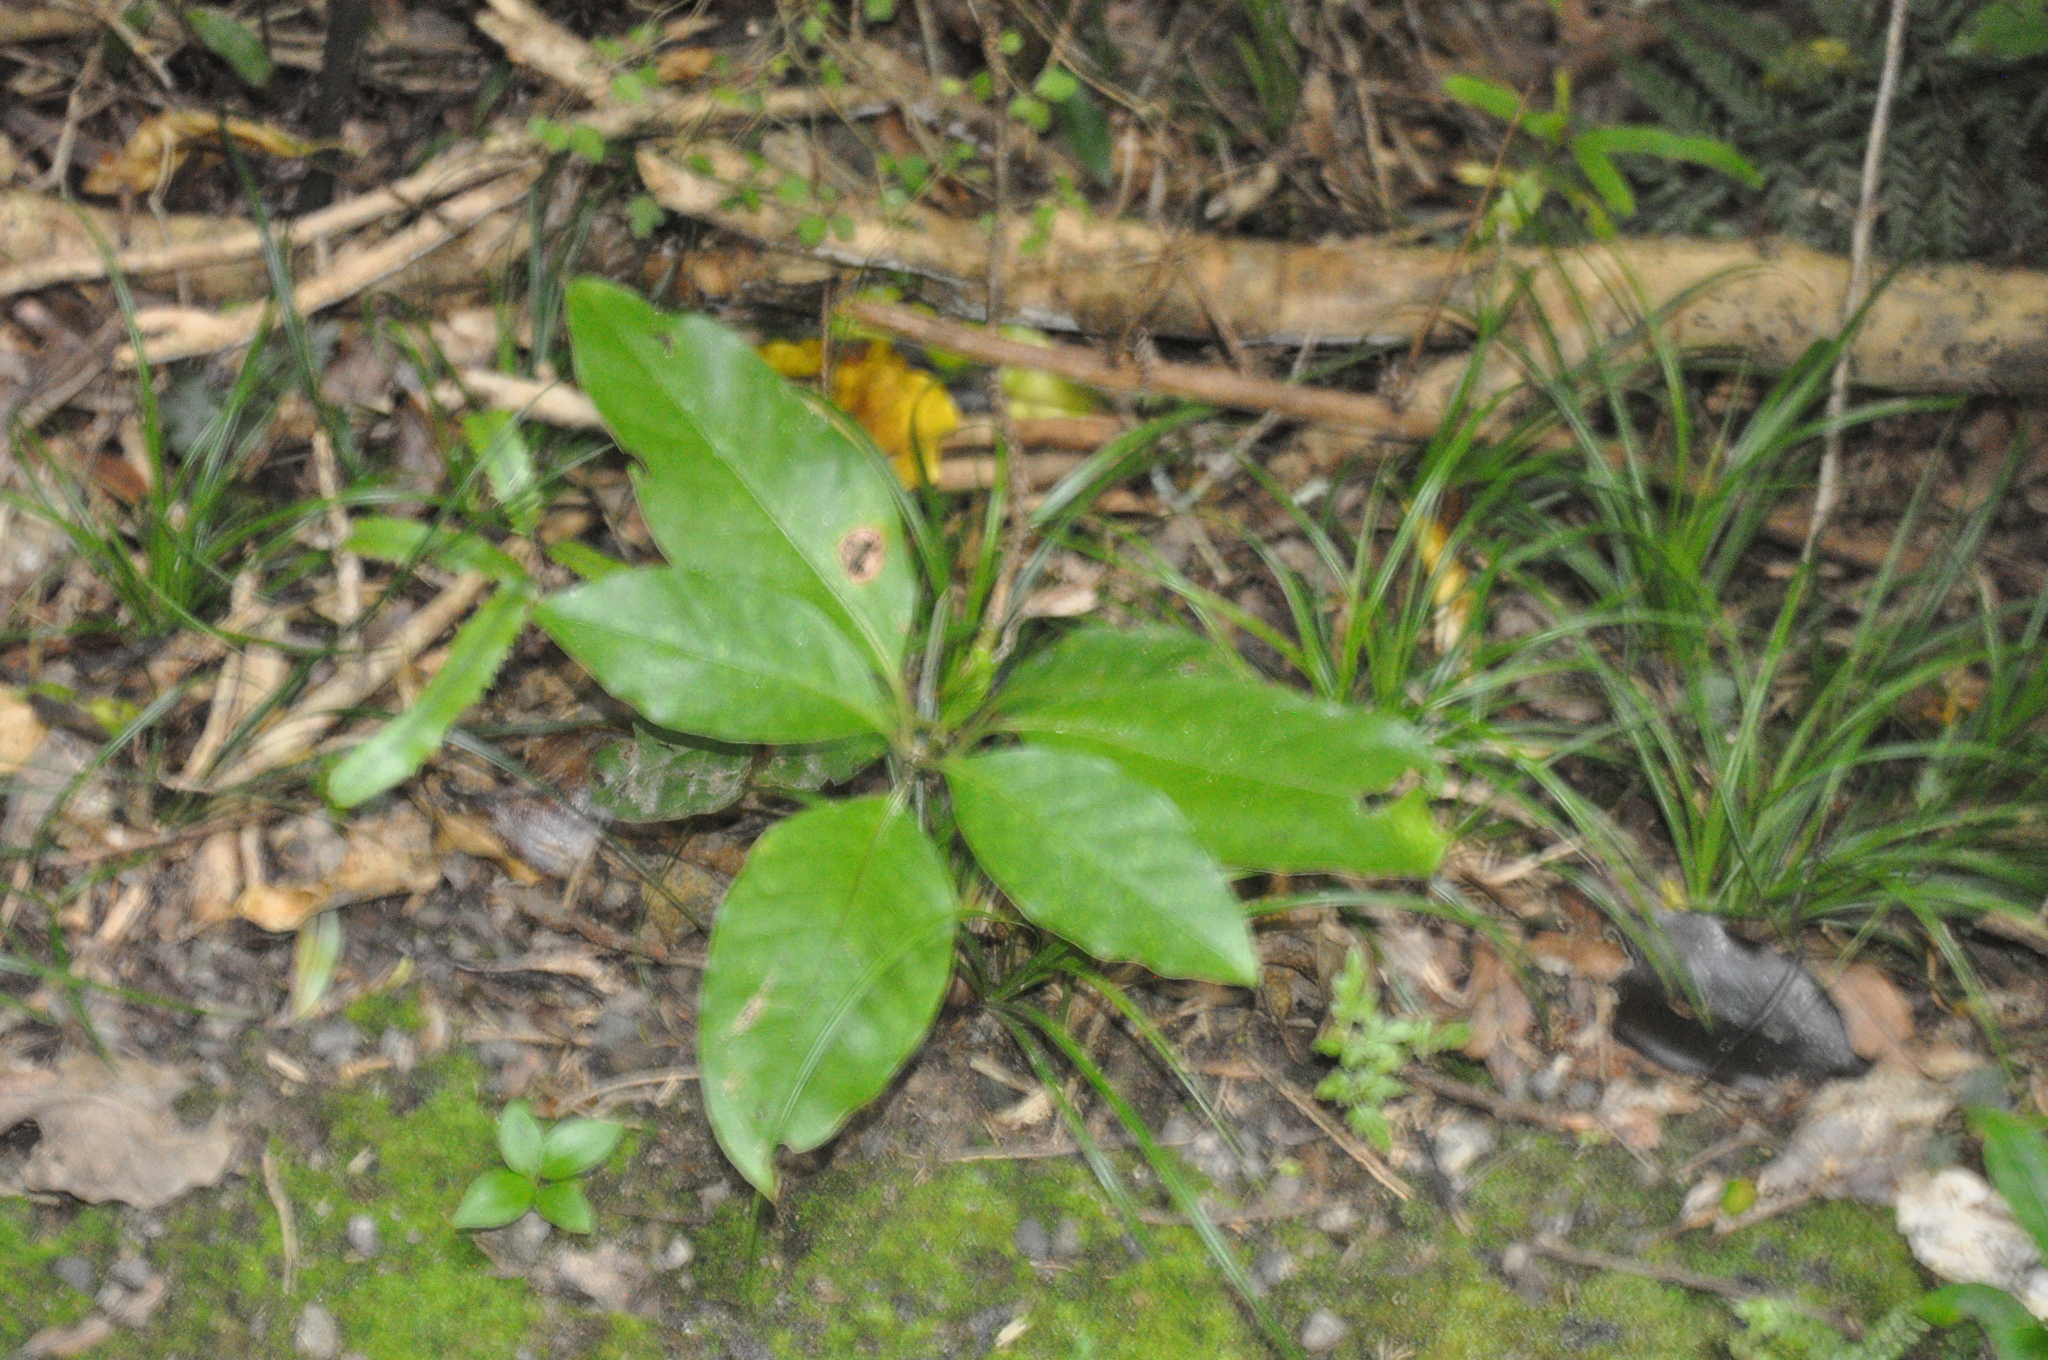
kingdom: Plantae
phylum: Tracheophyta
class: Magnoliopsida
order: Gentianales
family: Rubiaceae
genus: Coprosma
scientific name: Coprosma autumnalis
